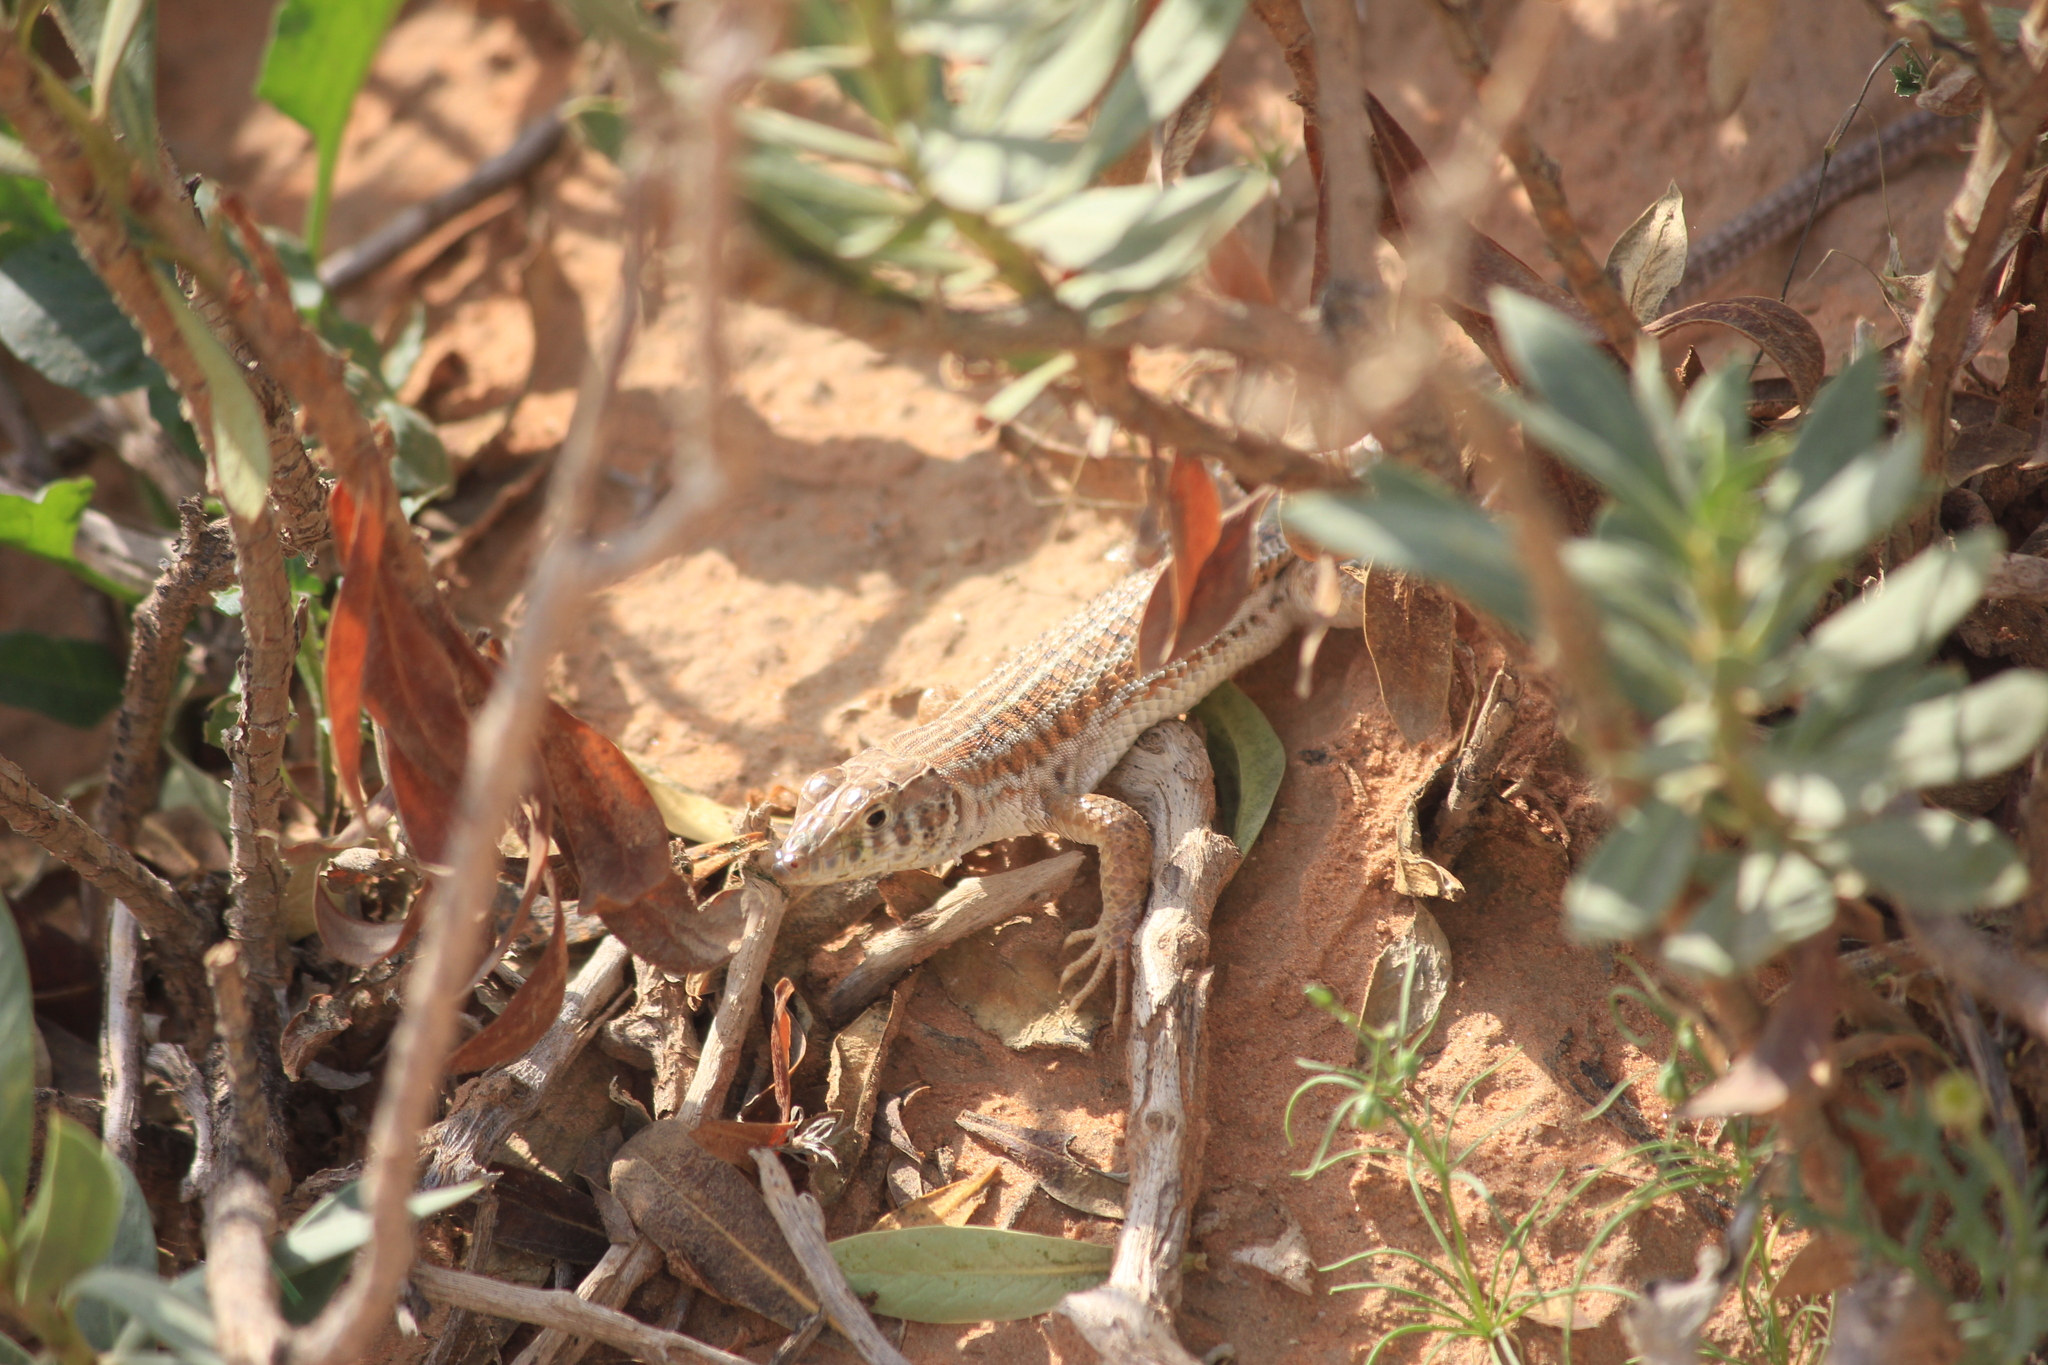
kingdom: Animalia
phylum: Chordata
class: Squamata
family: Lacertidae
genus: Acanthodactylus
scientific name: Acanthodactylus boskianus
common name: Bosc’s fringe-toed lizard
